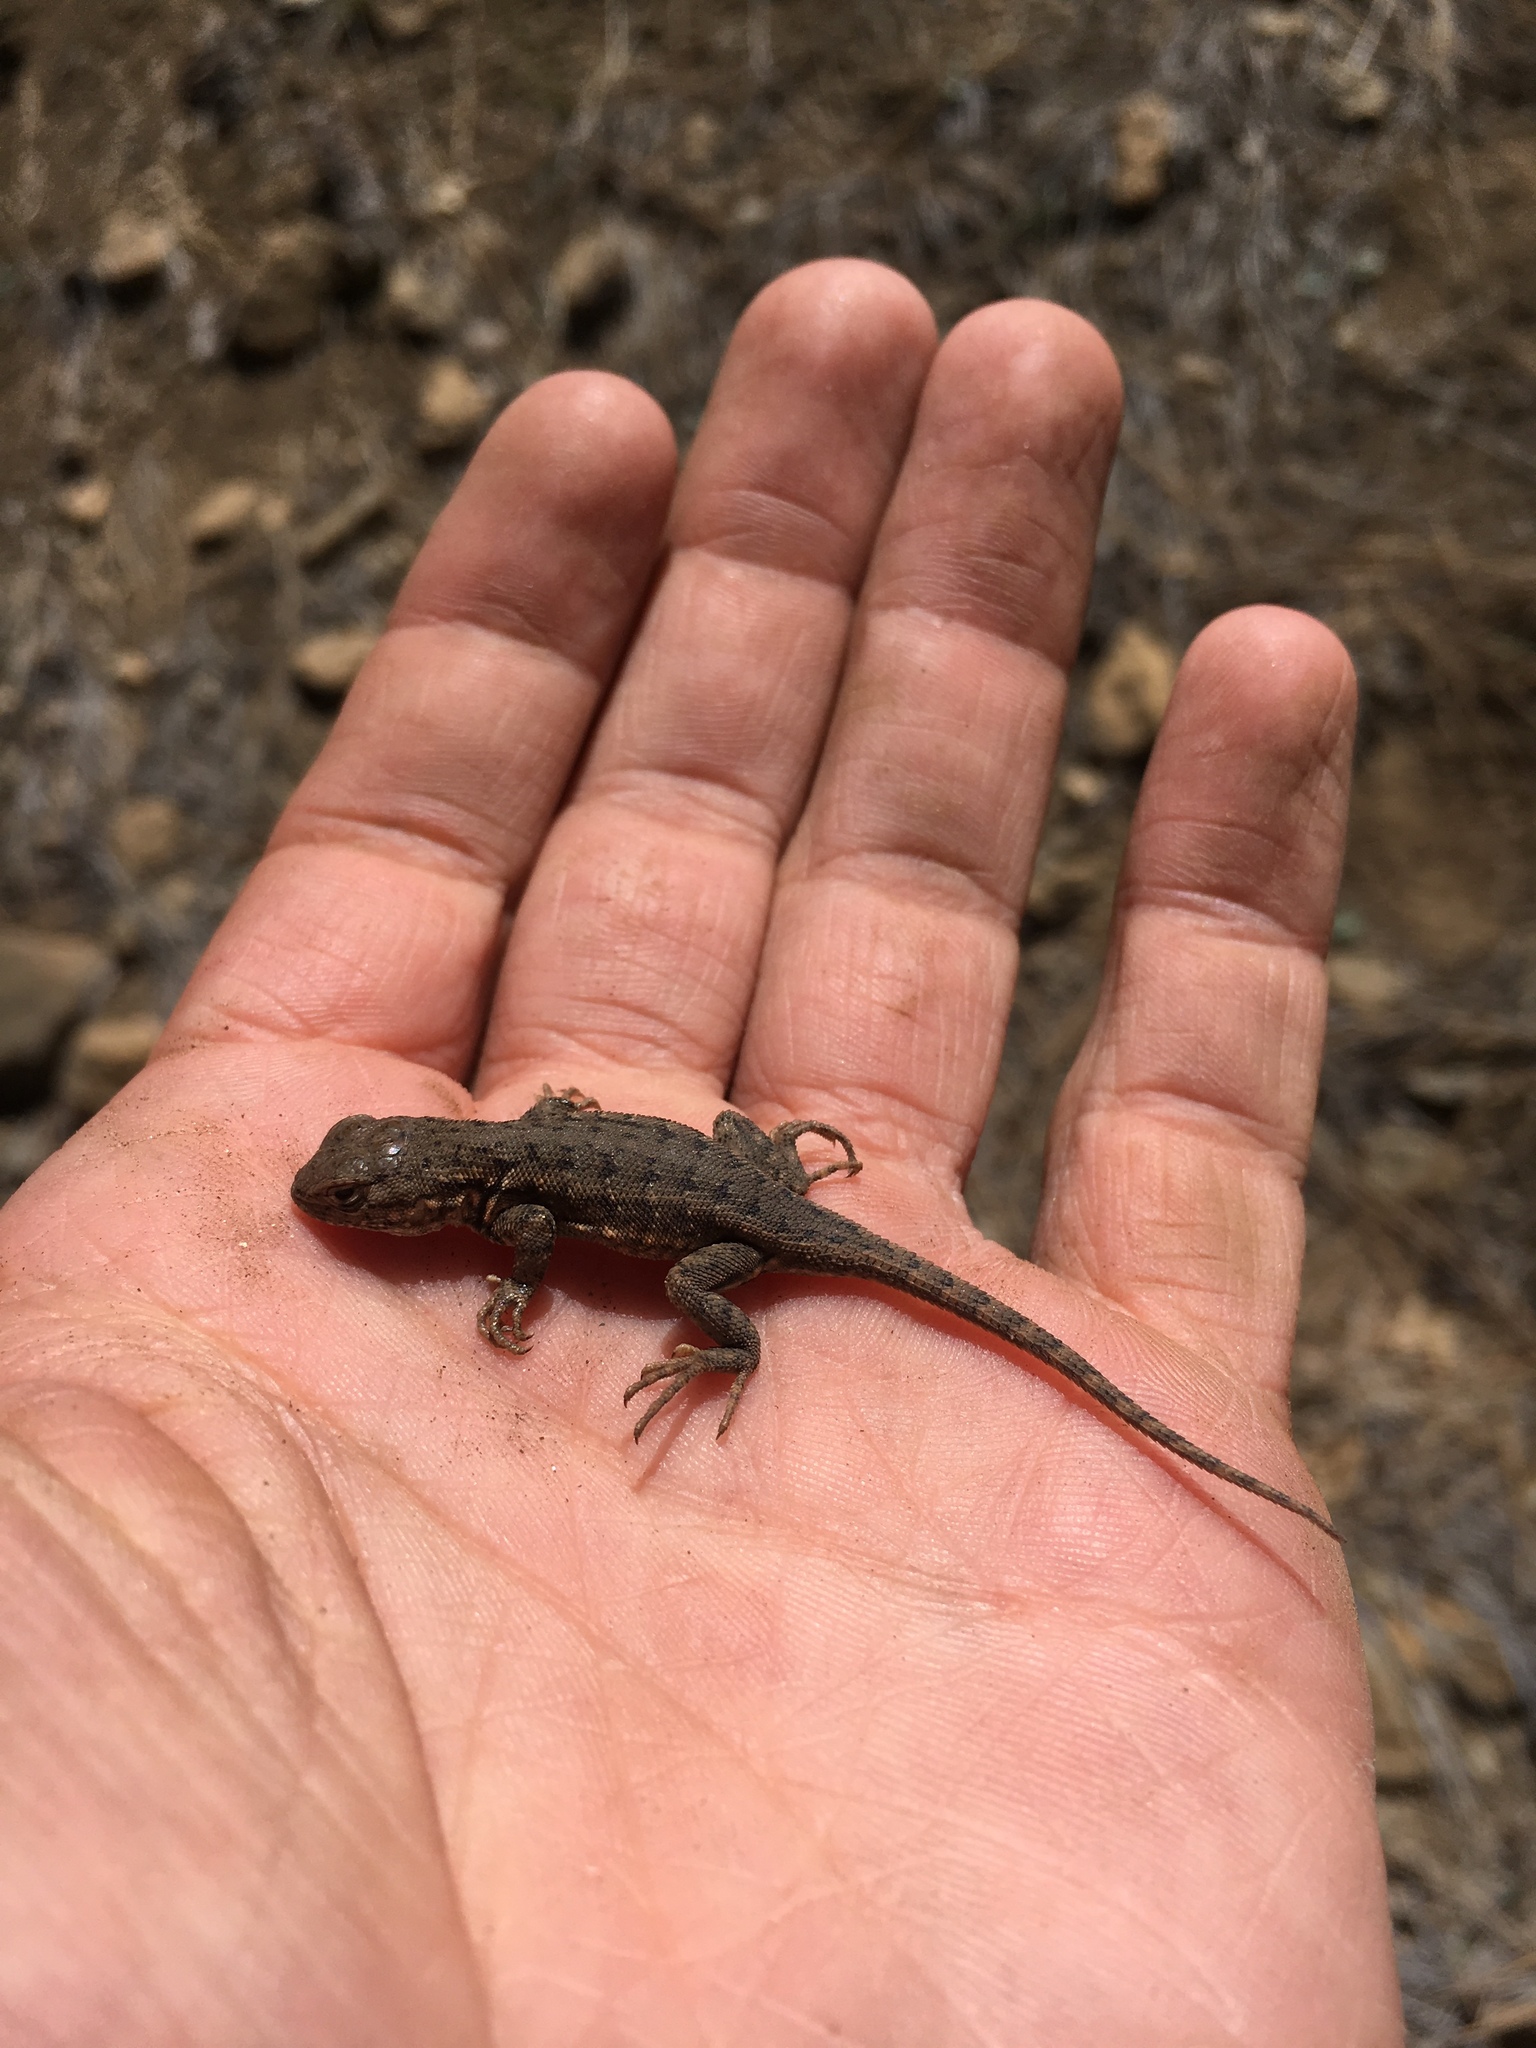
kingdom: Animalia
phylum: Chordata
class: Squamata
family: Phrynosomatidae
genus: Sceloporus
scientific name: Sceloporus graciosus
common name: Sagebrush lizard
